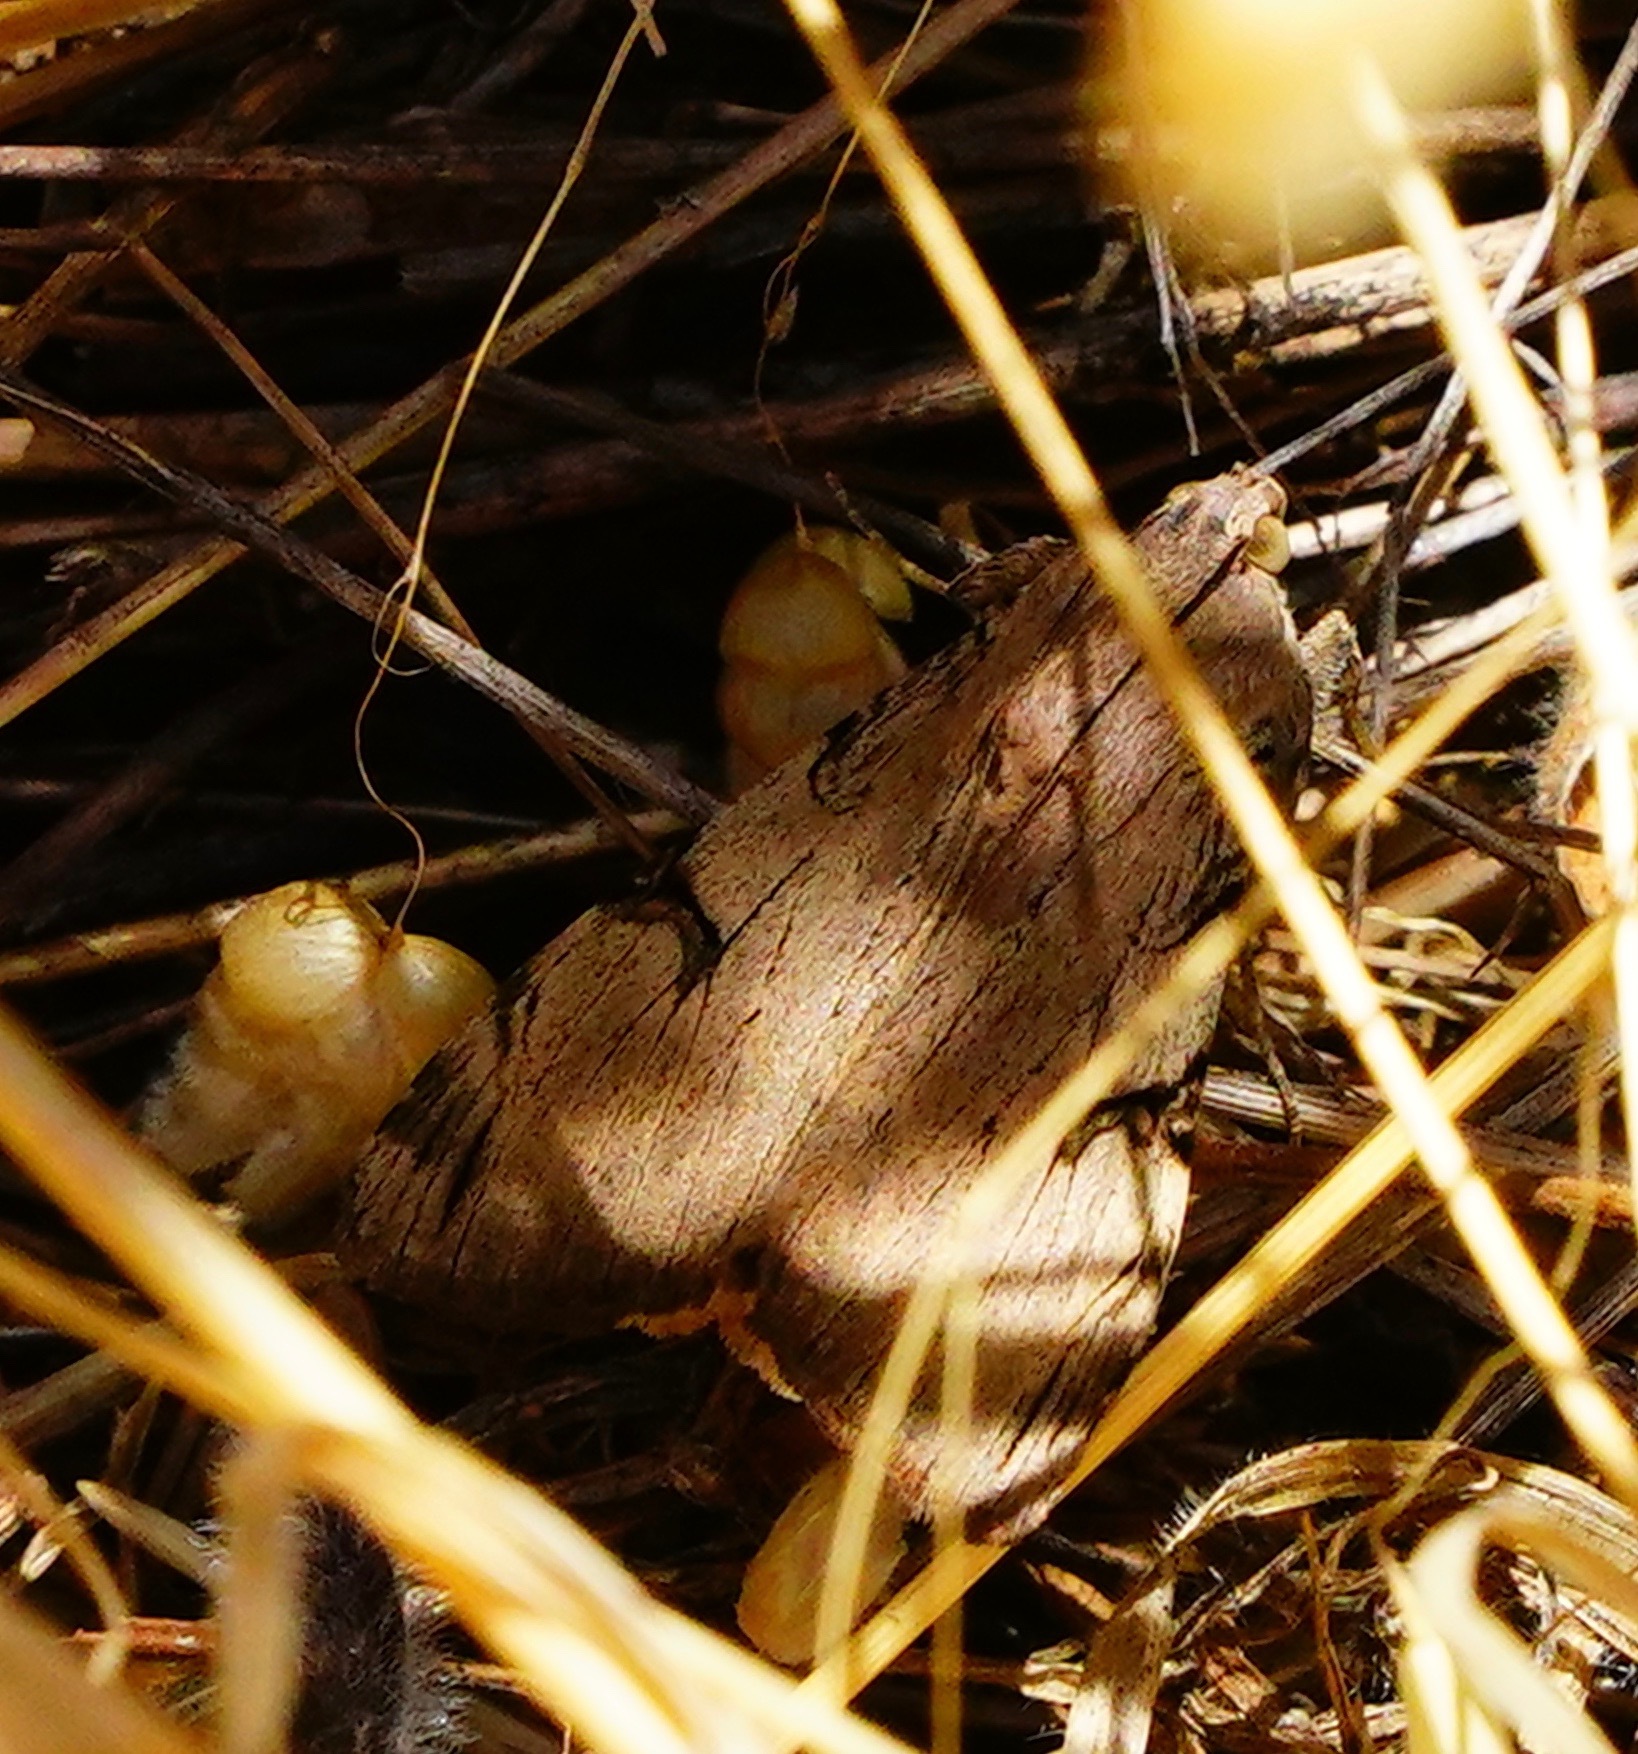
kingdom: Animalia
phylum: Arthropoda
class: Insecta
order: Lepidoptera
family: Erebidae
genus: Drasteria
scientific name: Drasteria ochracea
